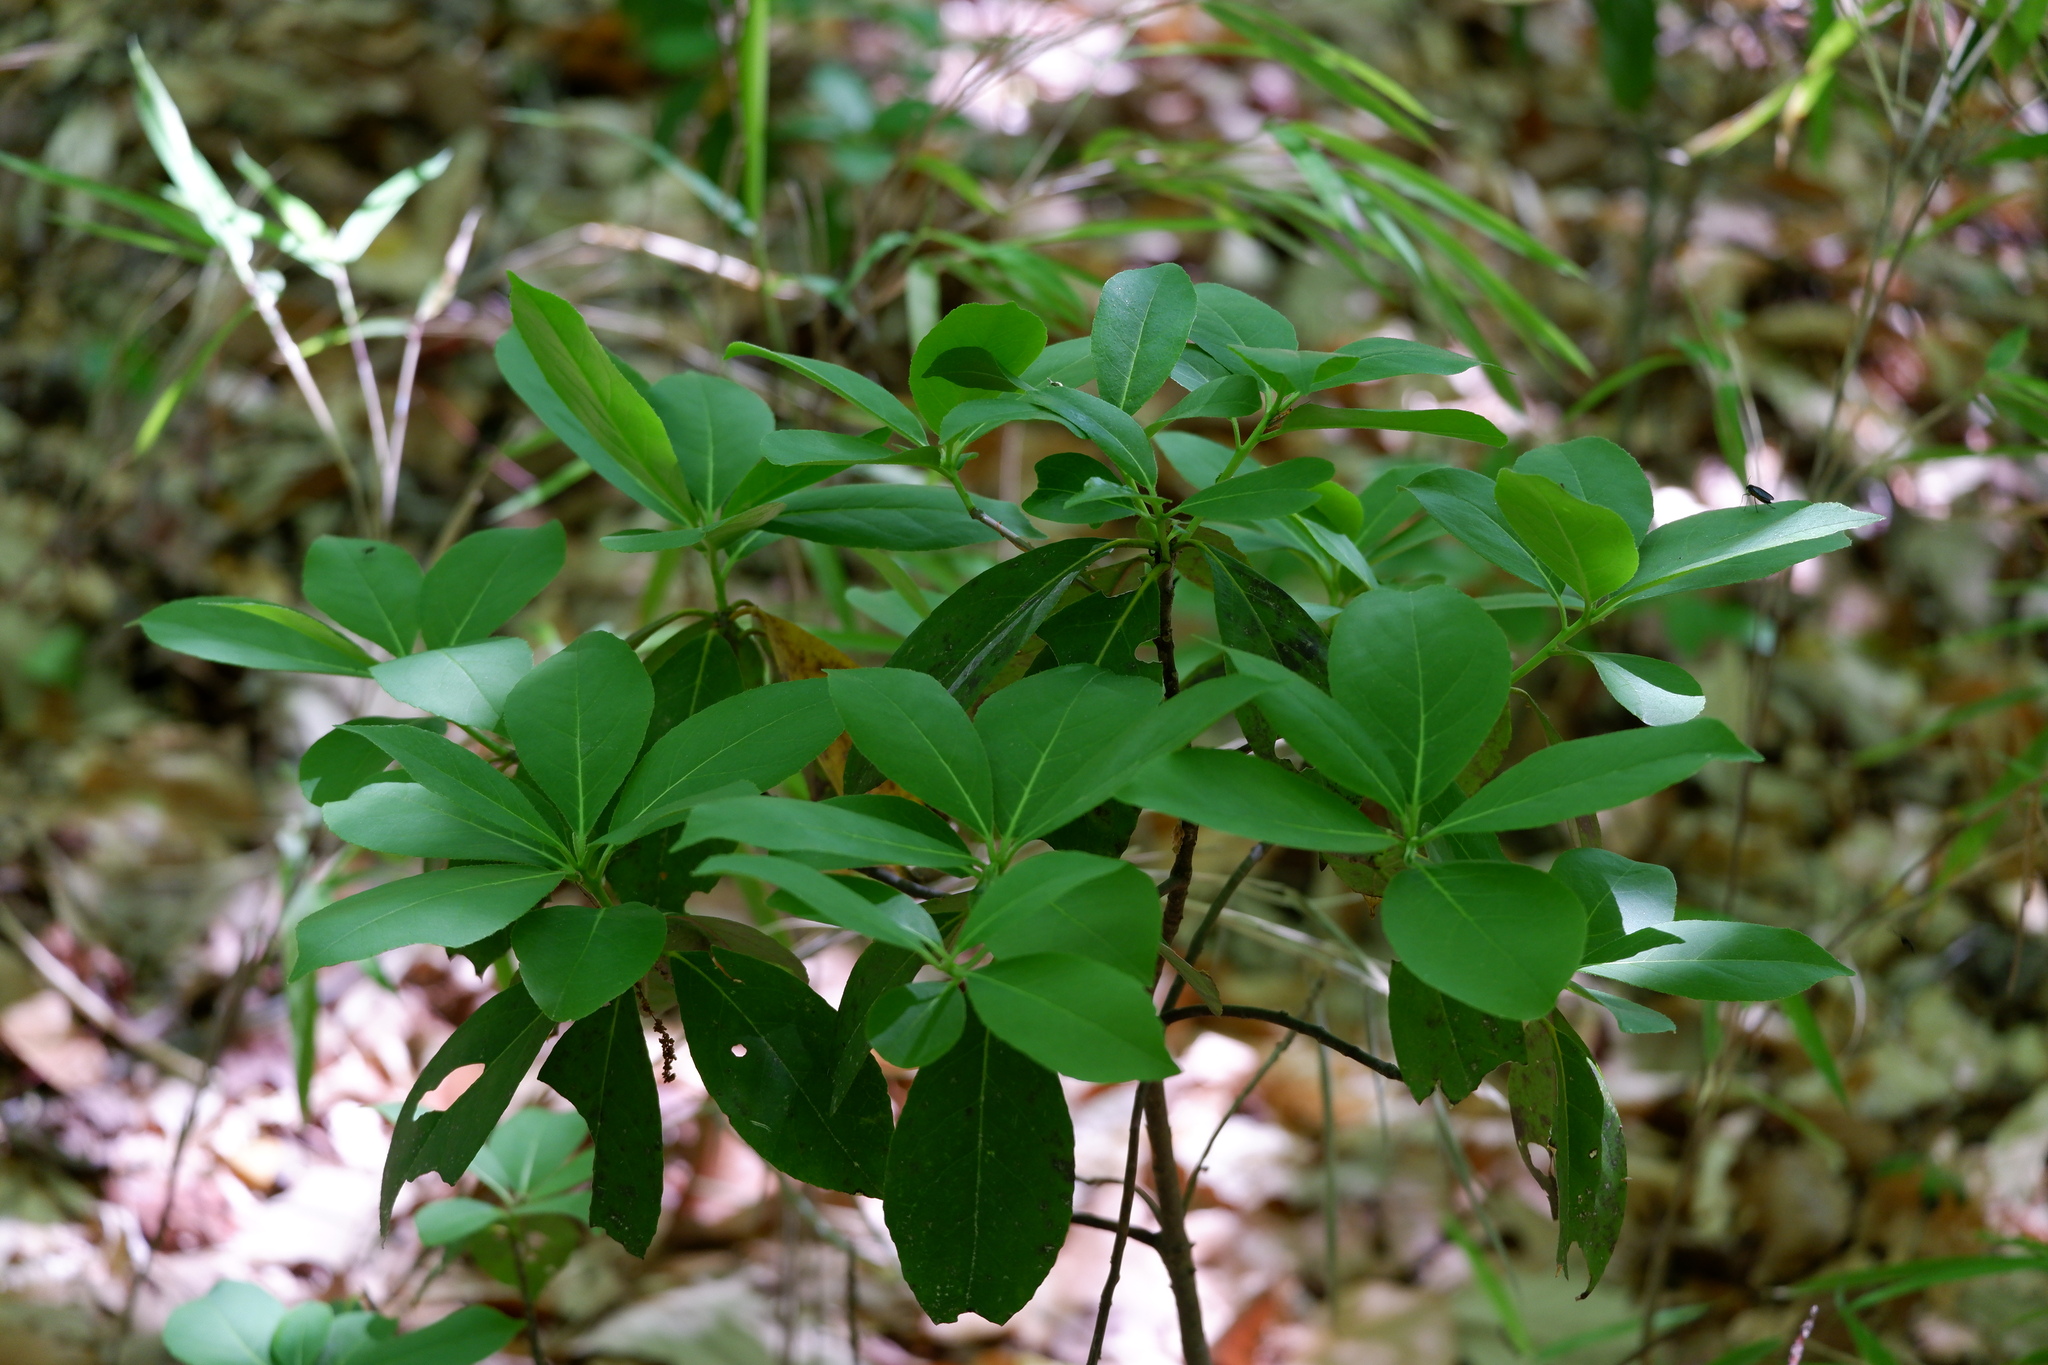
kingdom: Plantae
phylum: Tracheophyta
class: Magnoliopsida
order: Ericales
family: Symplocaceae
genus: Symplocos
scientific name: Symplocos tinctoria
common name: Horse-sugar
